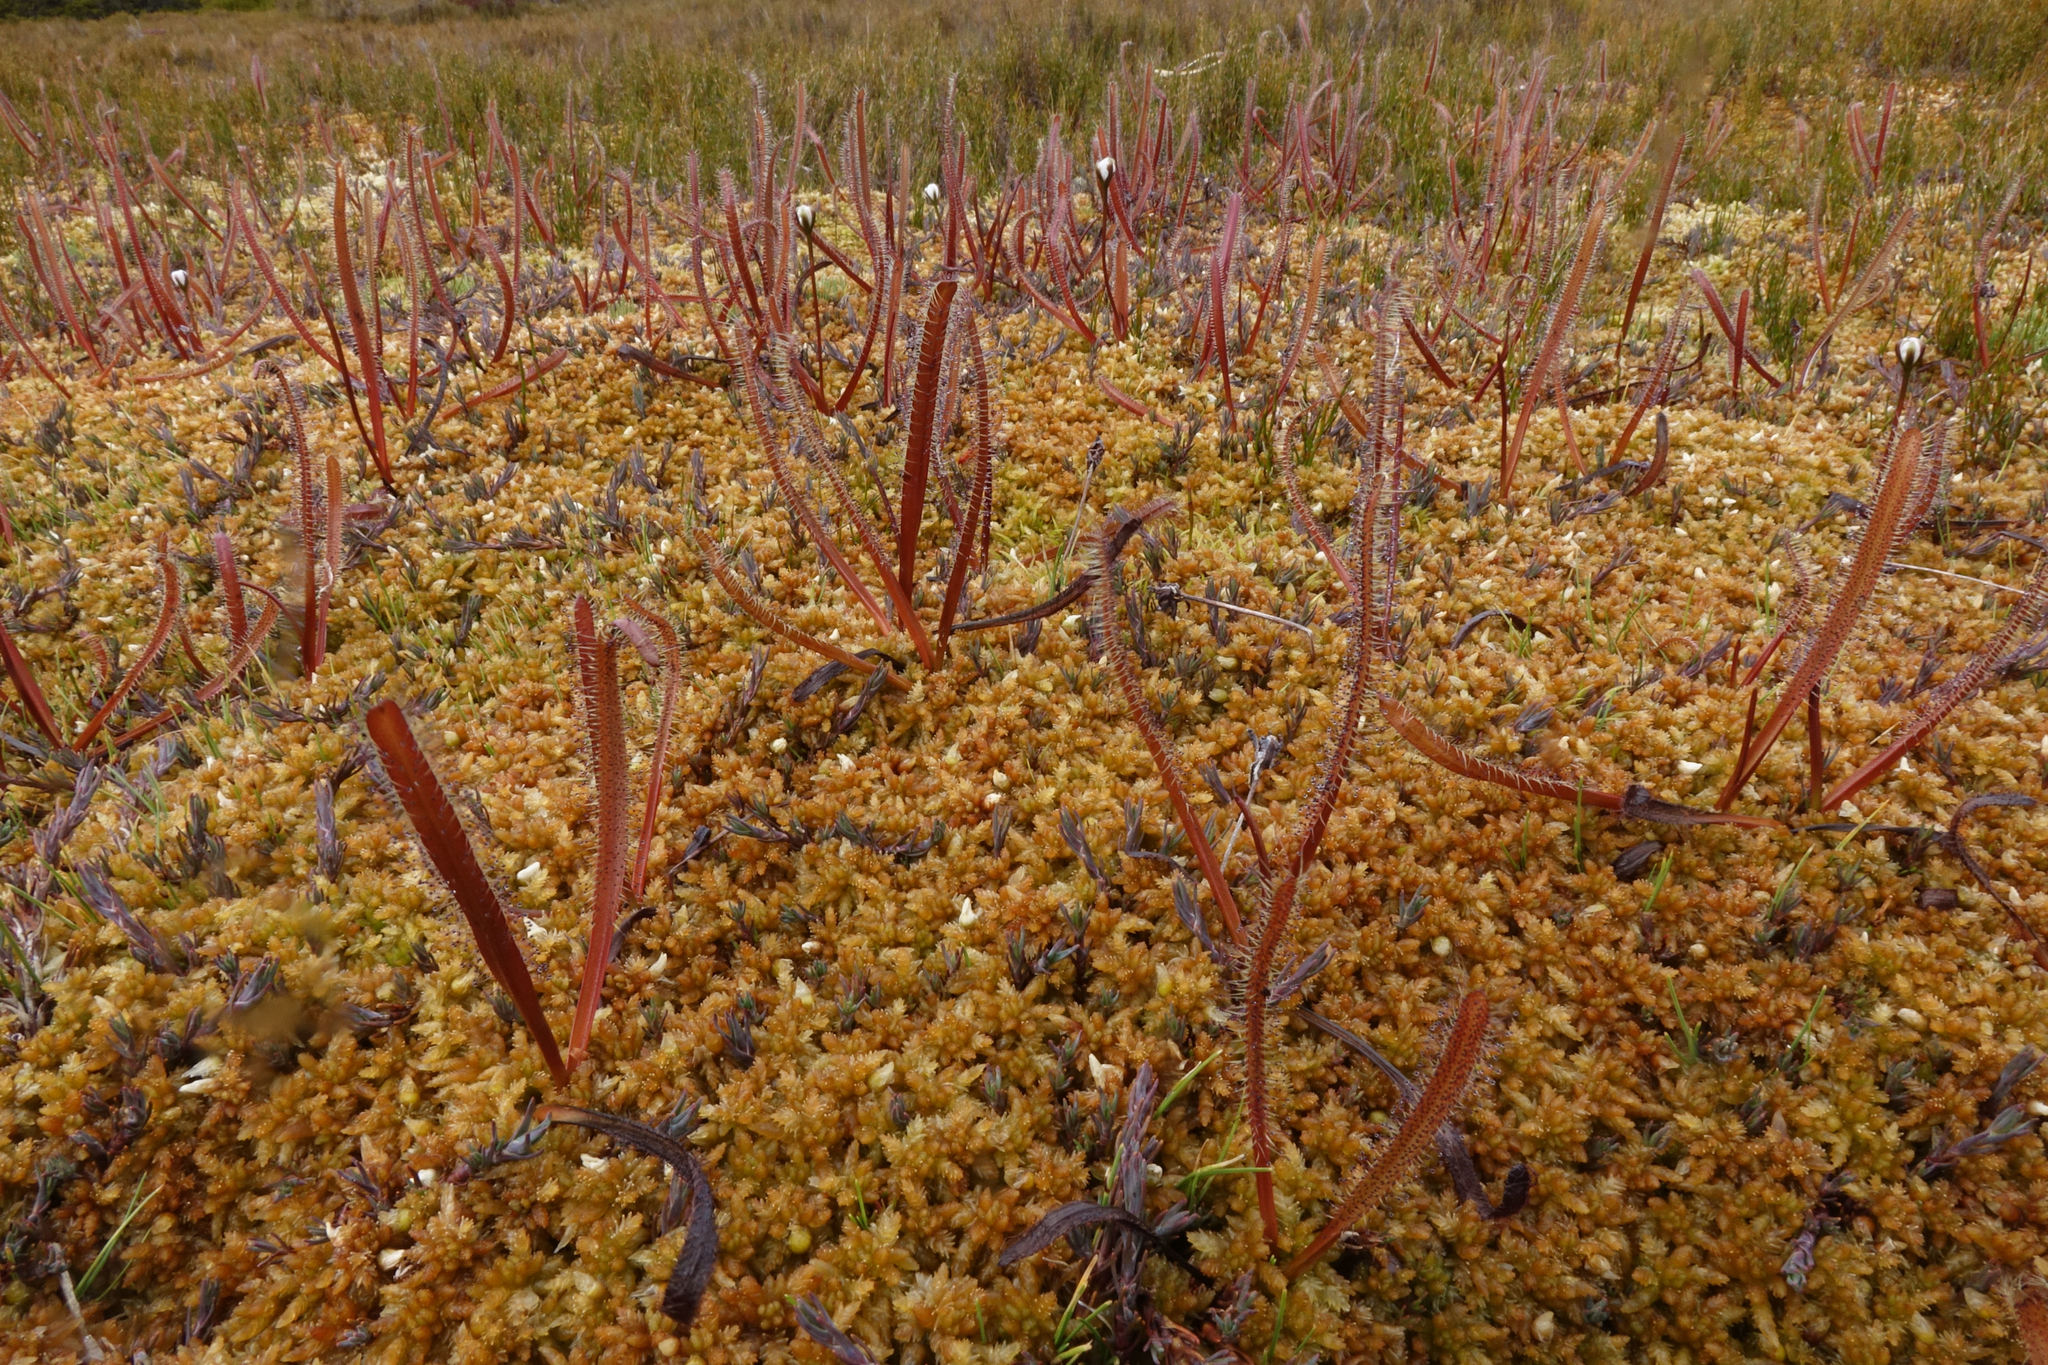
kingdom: Plantae
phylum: Tracheophyta
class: Magnoliopsida
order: Caryophyllales
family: Droseraceae
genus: Drosera
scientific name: Drosera arcturi
